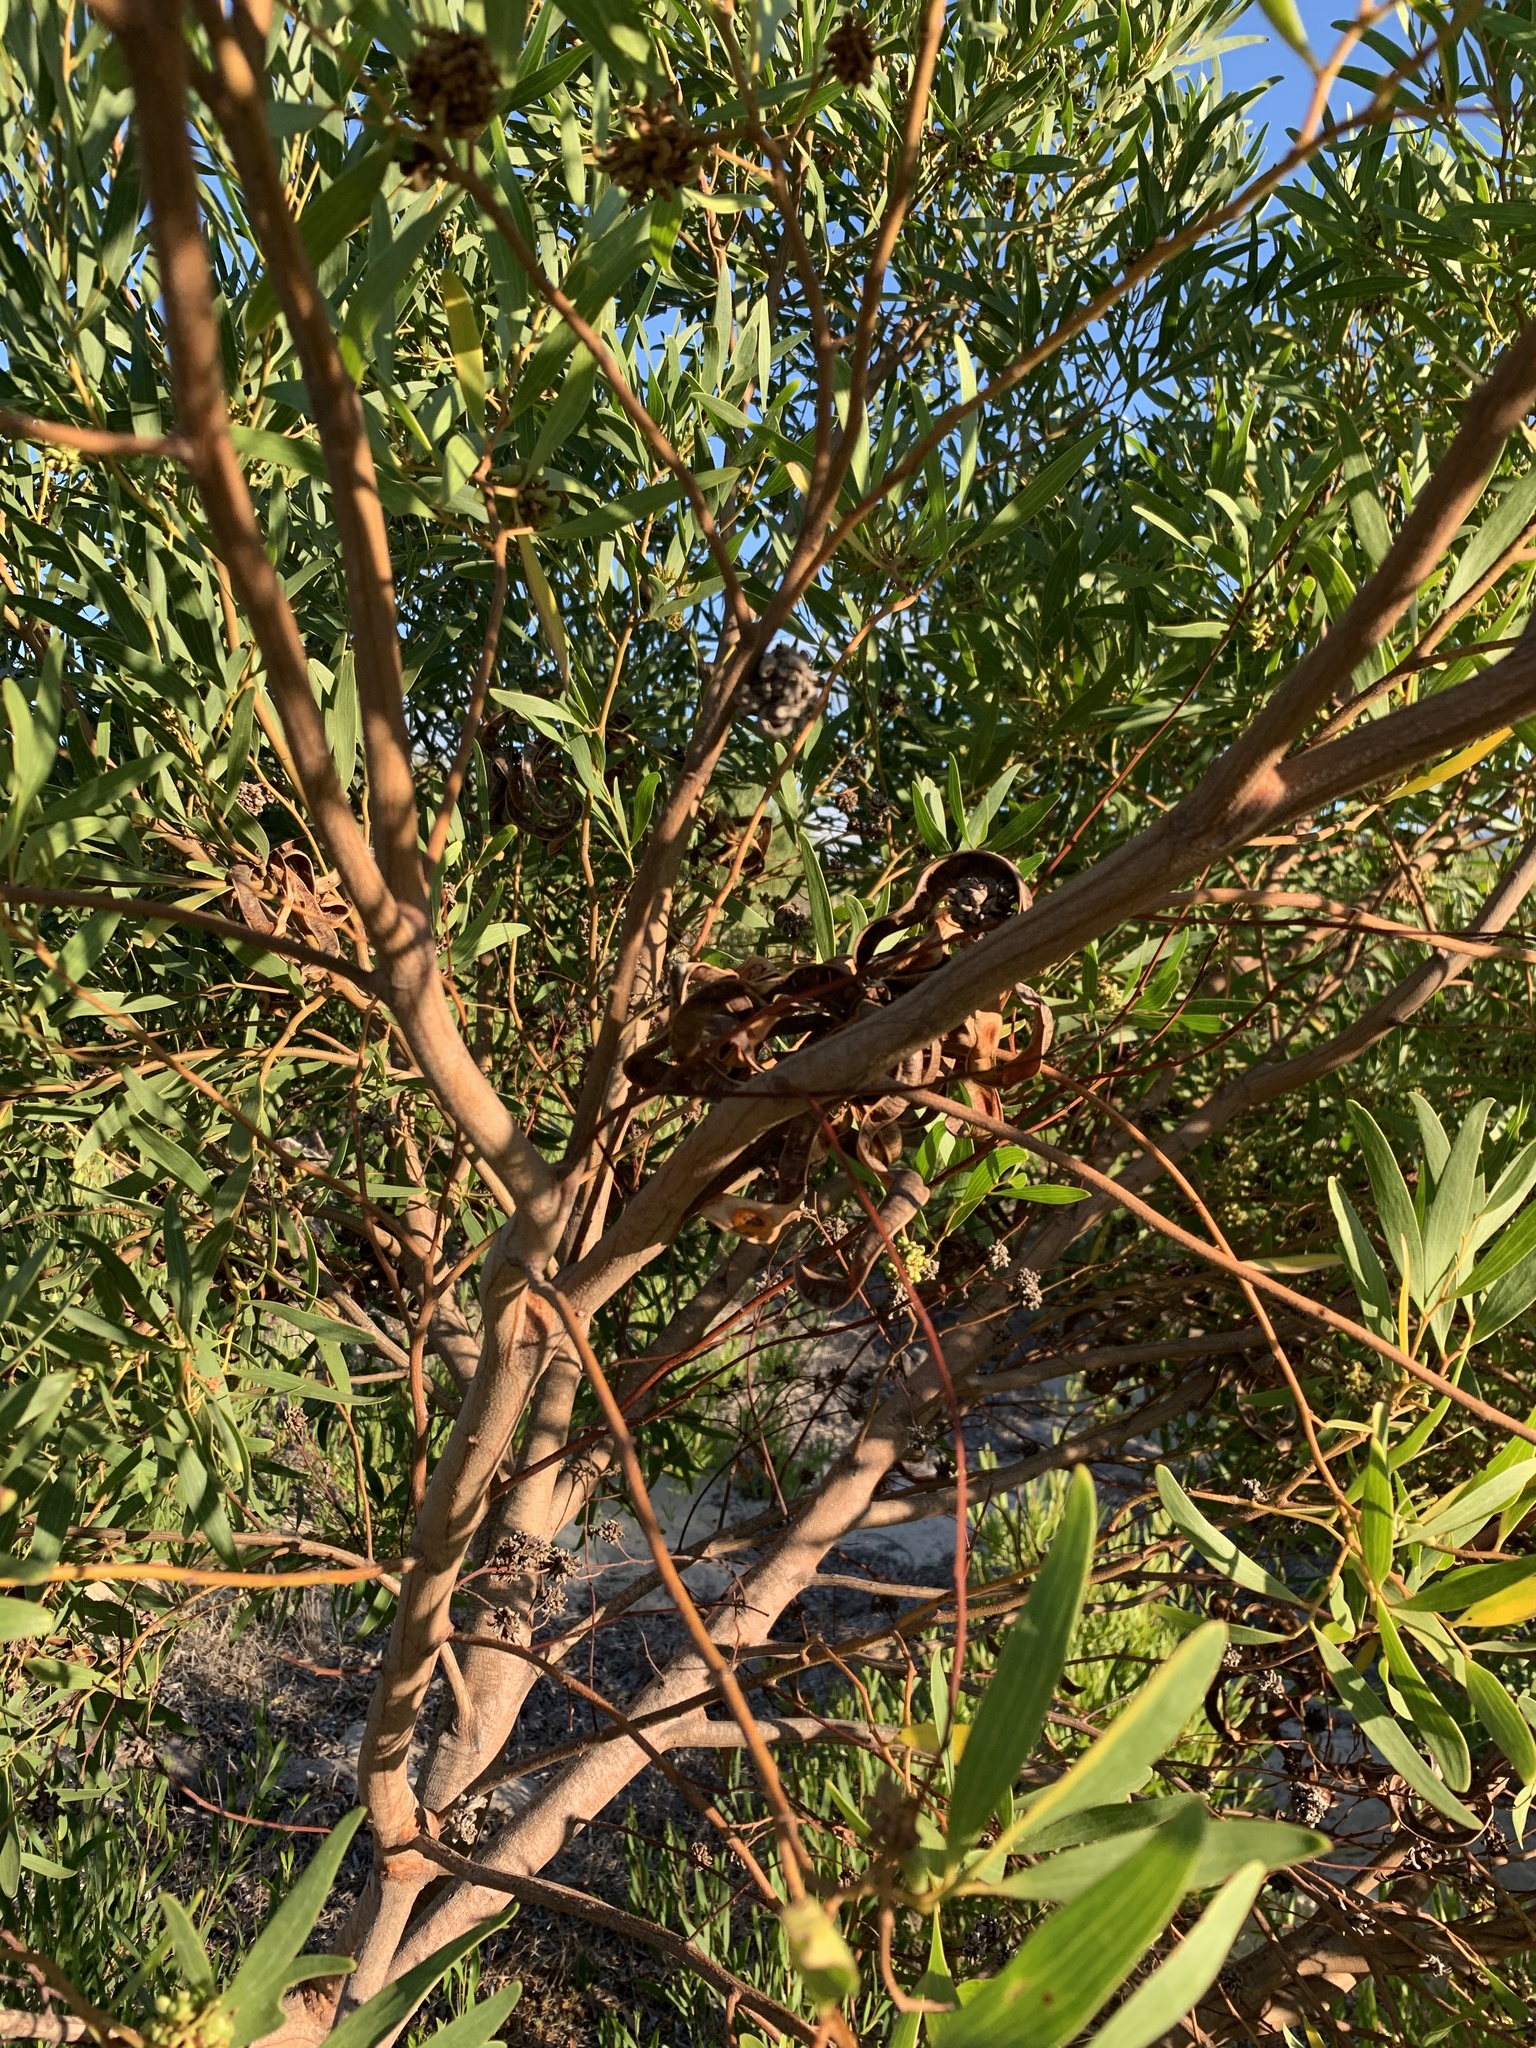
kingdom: Plantae
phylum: Tracheophyta
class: Magnoliopsida
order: Fabales
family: Fabaceae
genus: Acacia
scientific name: Acacia cyclops
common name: Coastal wattle
